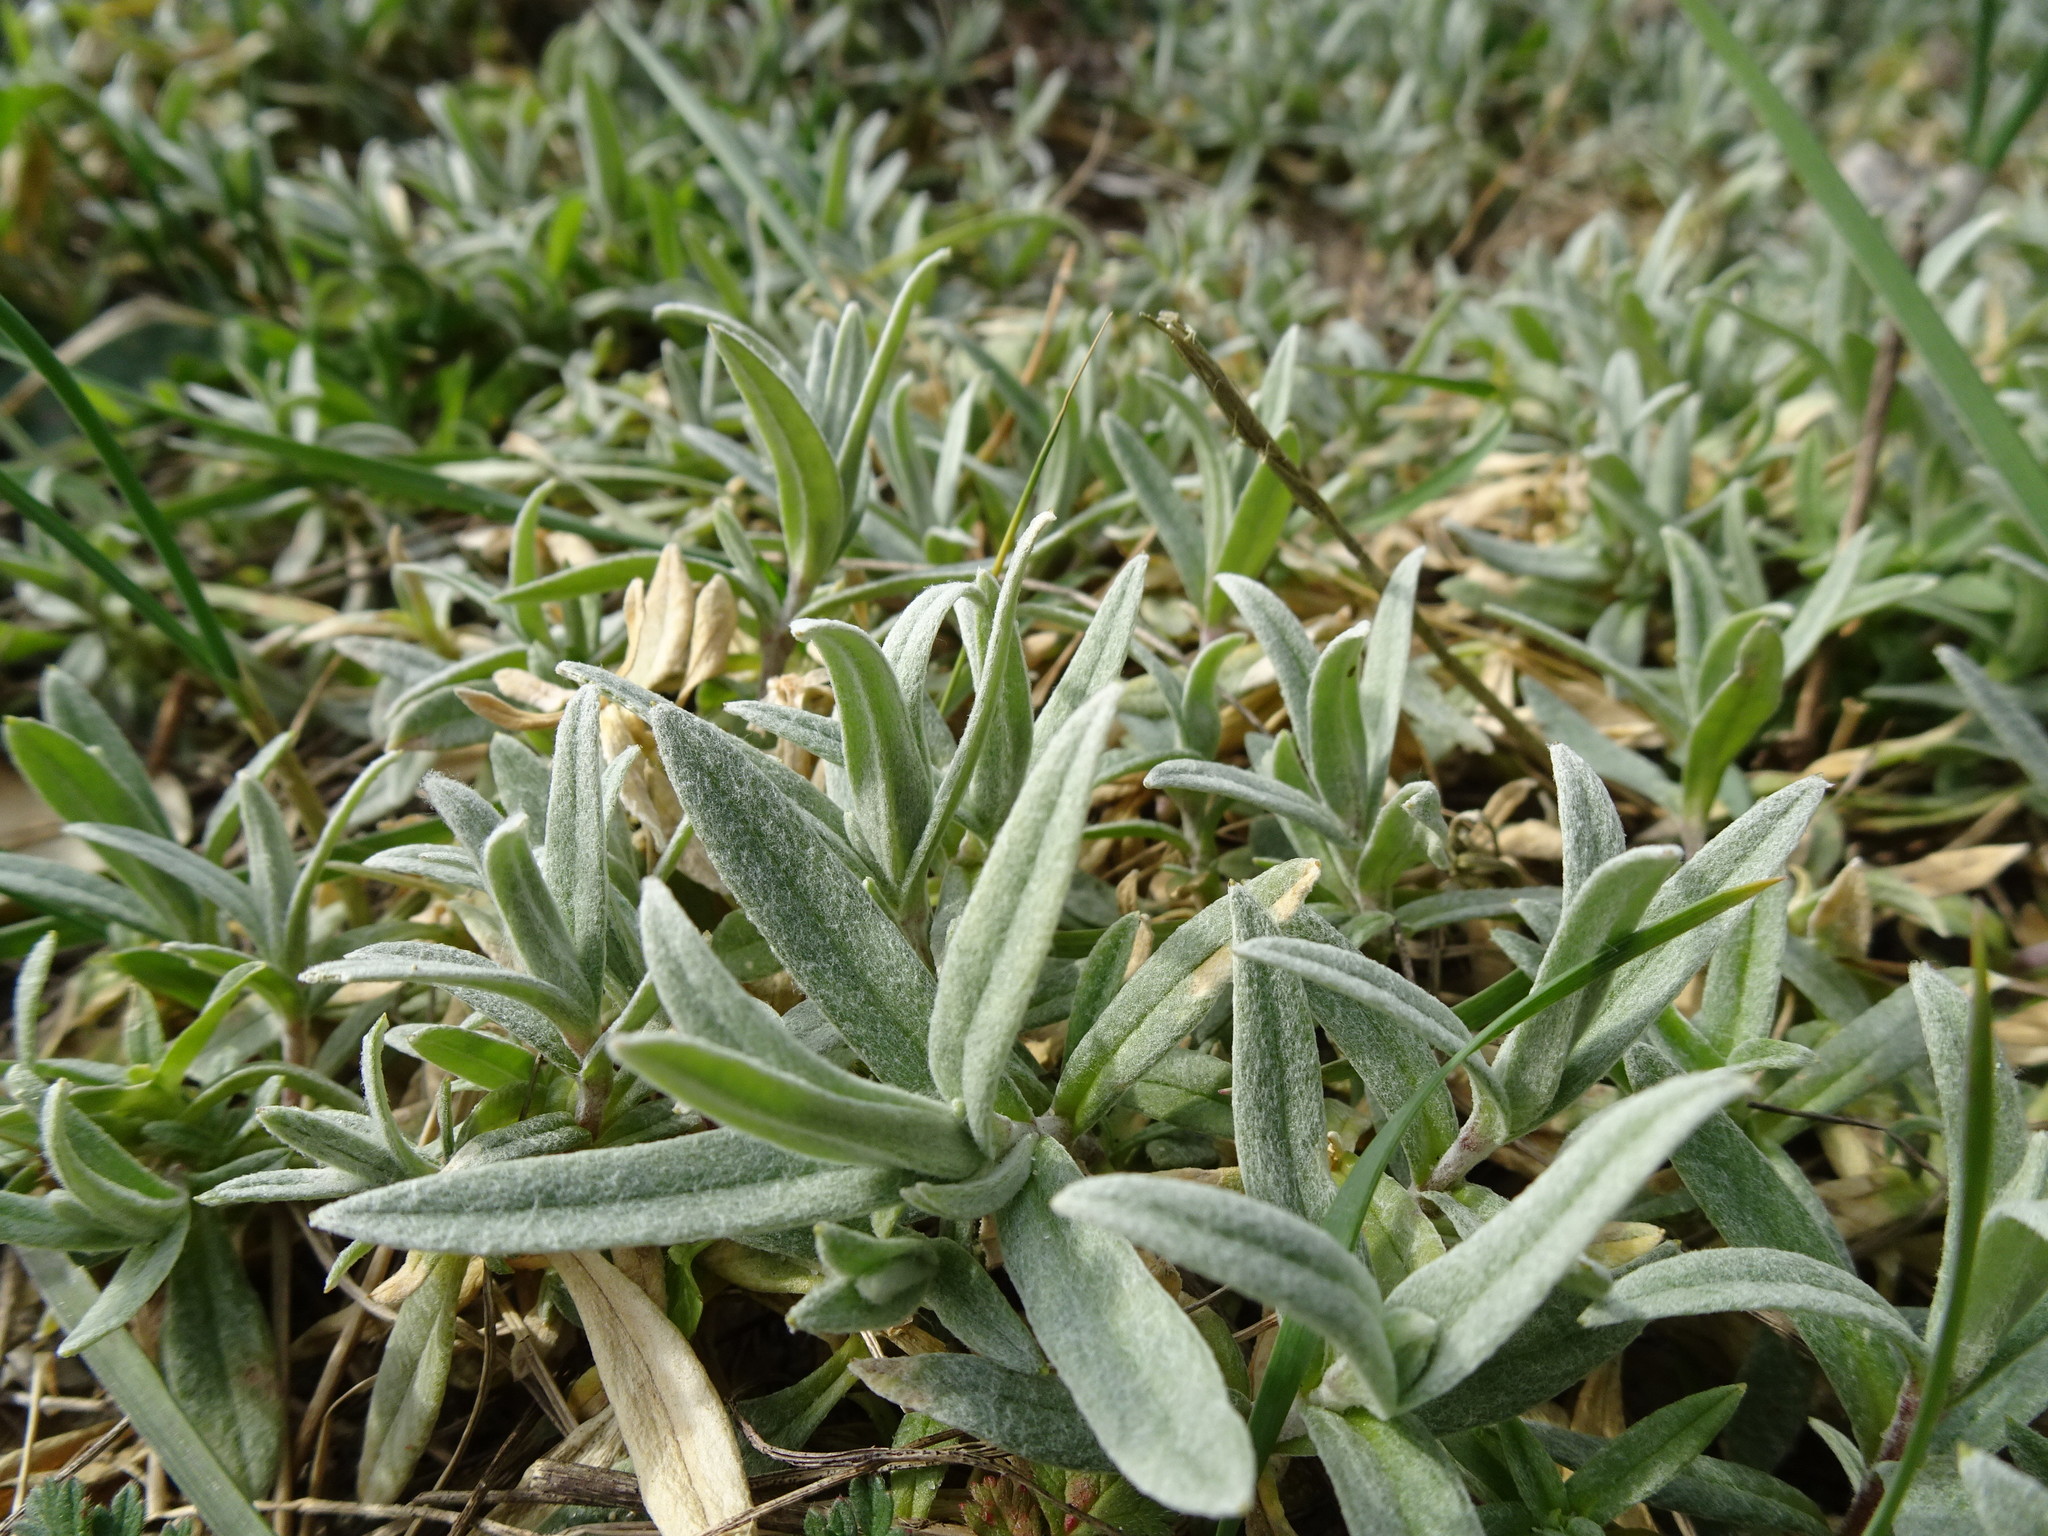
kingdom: Plantae
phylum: Tracheophyta
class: Magnoliopsida
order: Caryophyllales
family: Caryophyllaceae
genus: Cerastium
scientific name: Cerastium tomentosum
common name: Snow-in-summer
